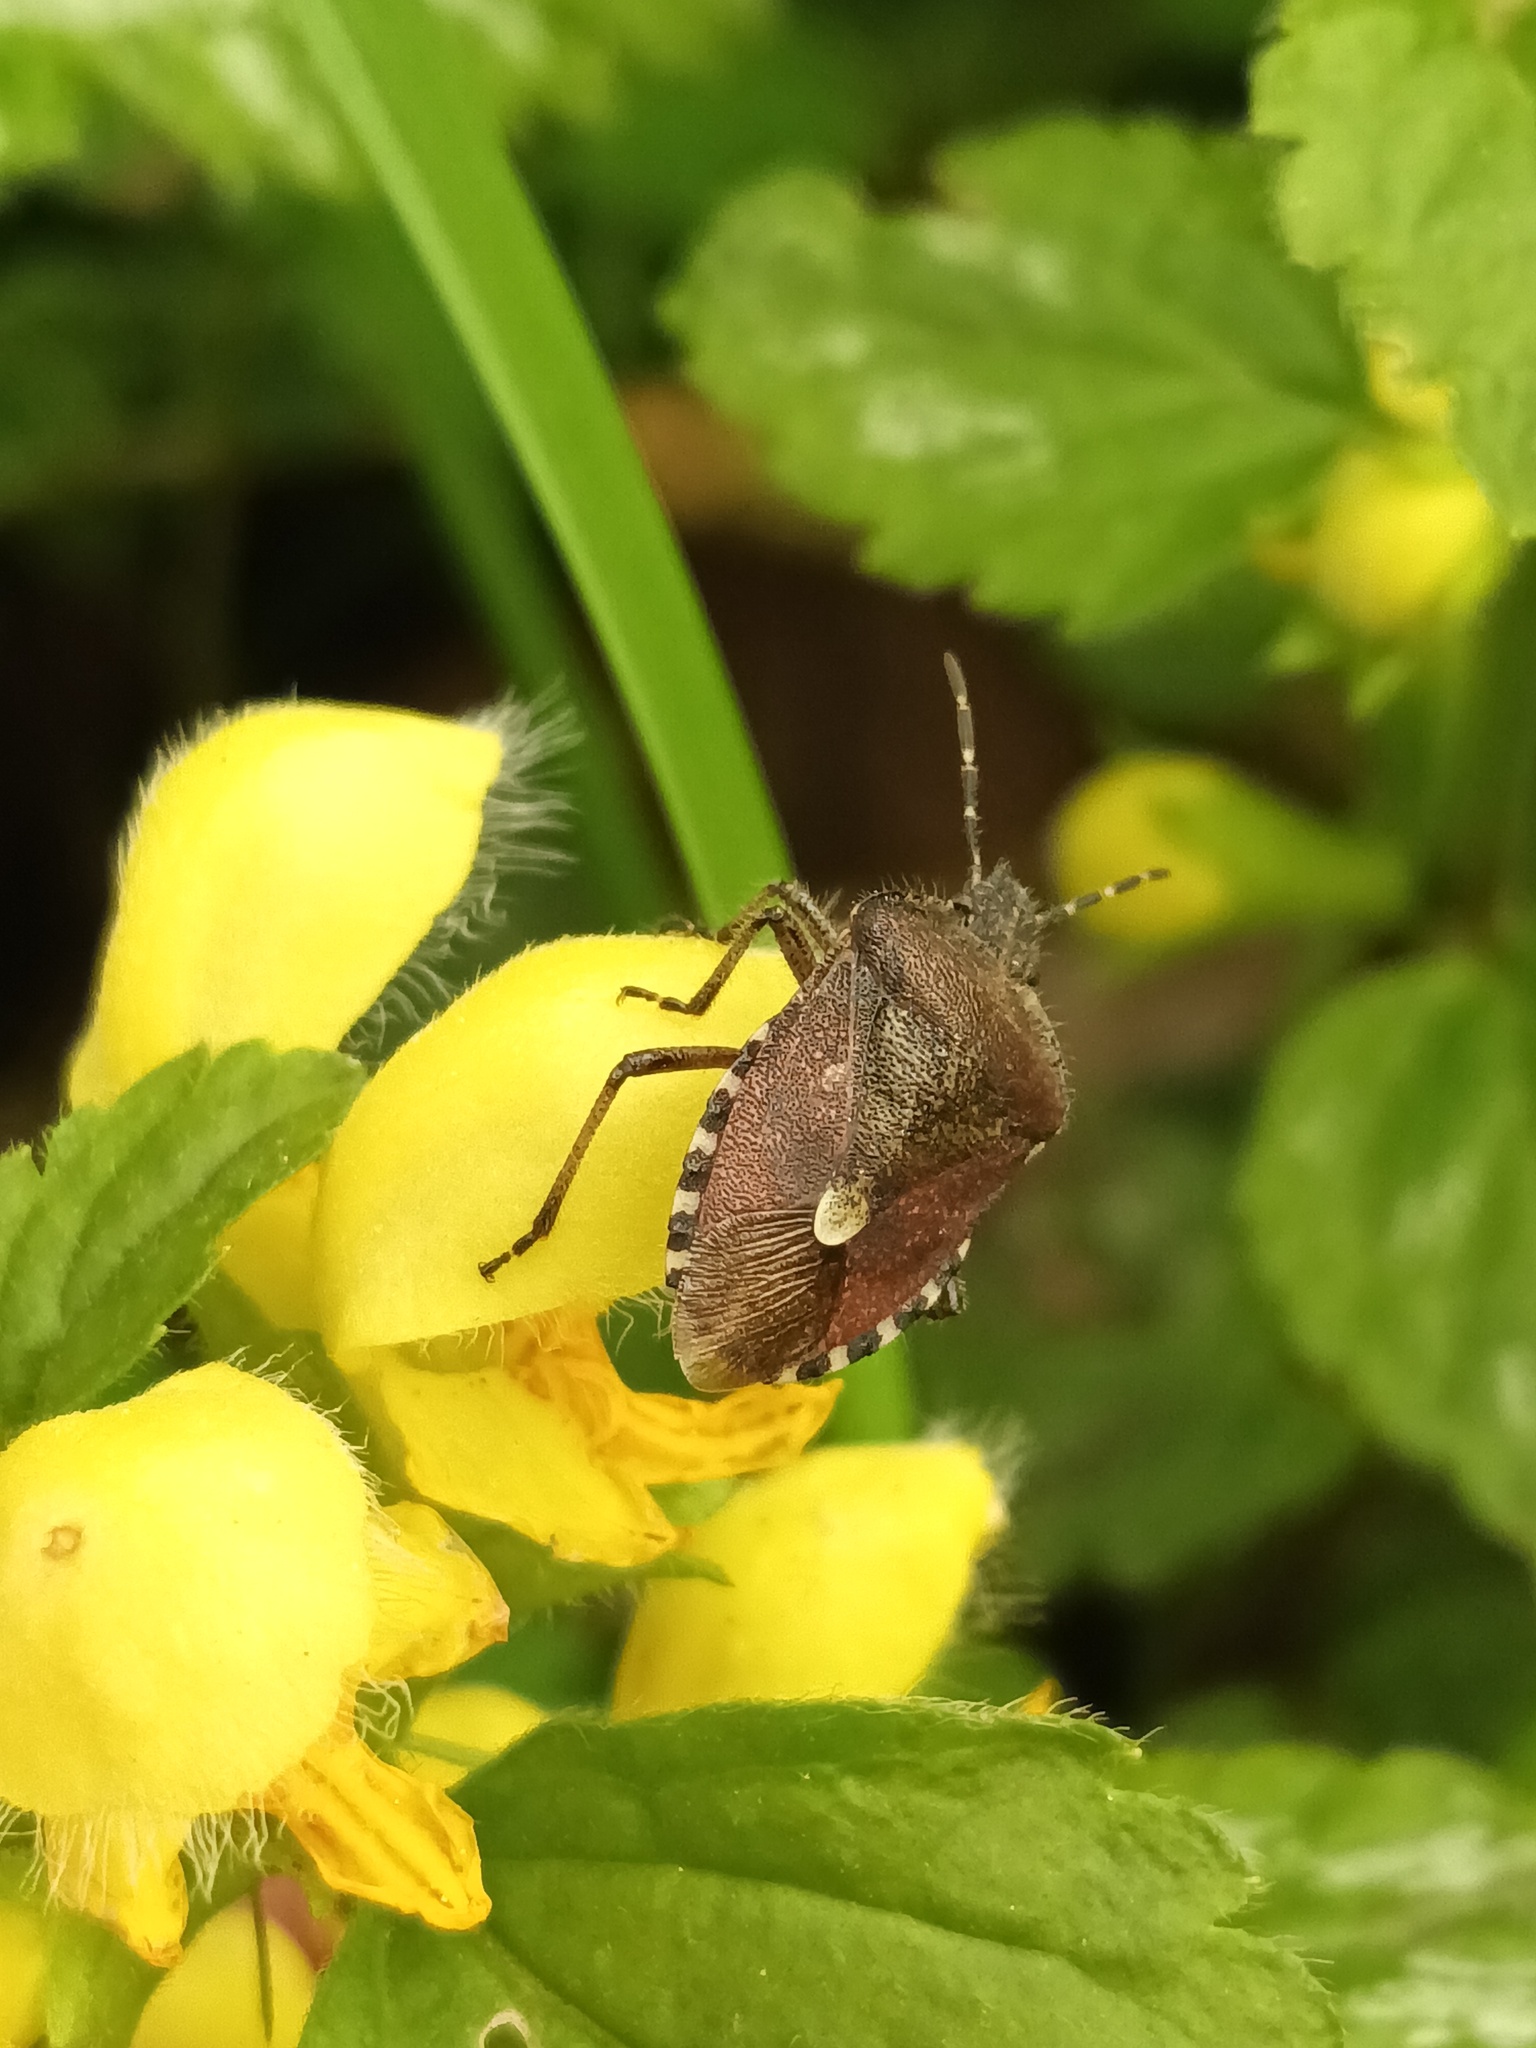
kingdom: Animalia
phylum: Arthropoda
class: Insecta
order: Hemiptera
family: Pentatomidae
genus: Dolycoris
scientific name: Dolycoris baccarum
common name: Sloe bug
